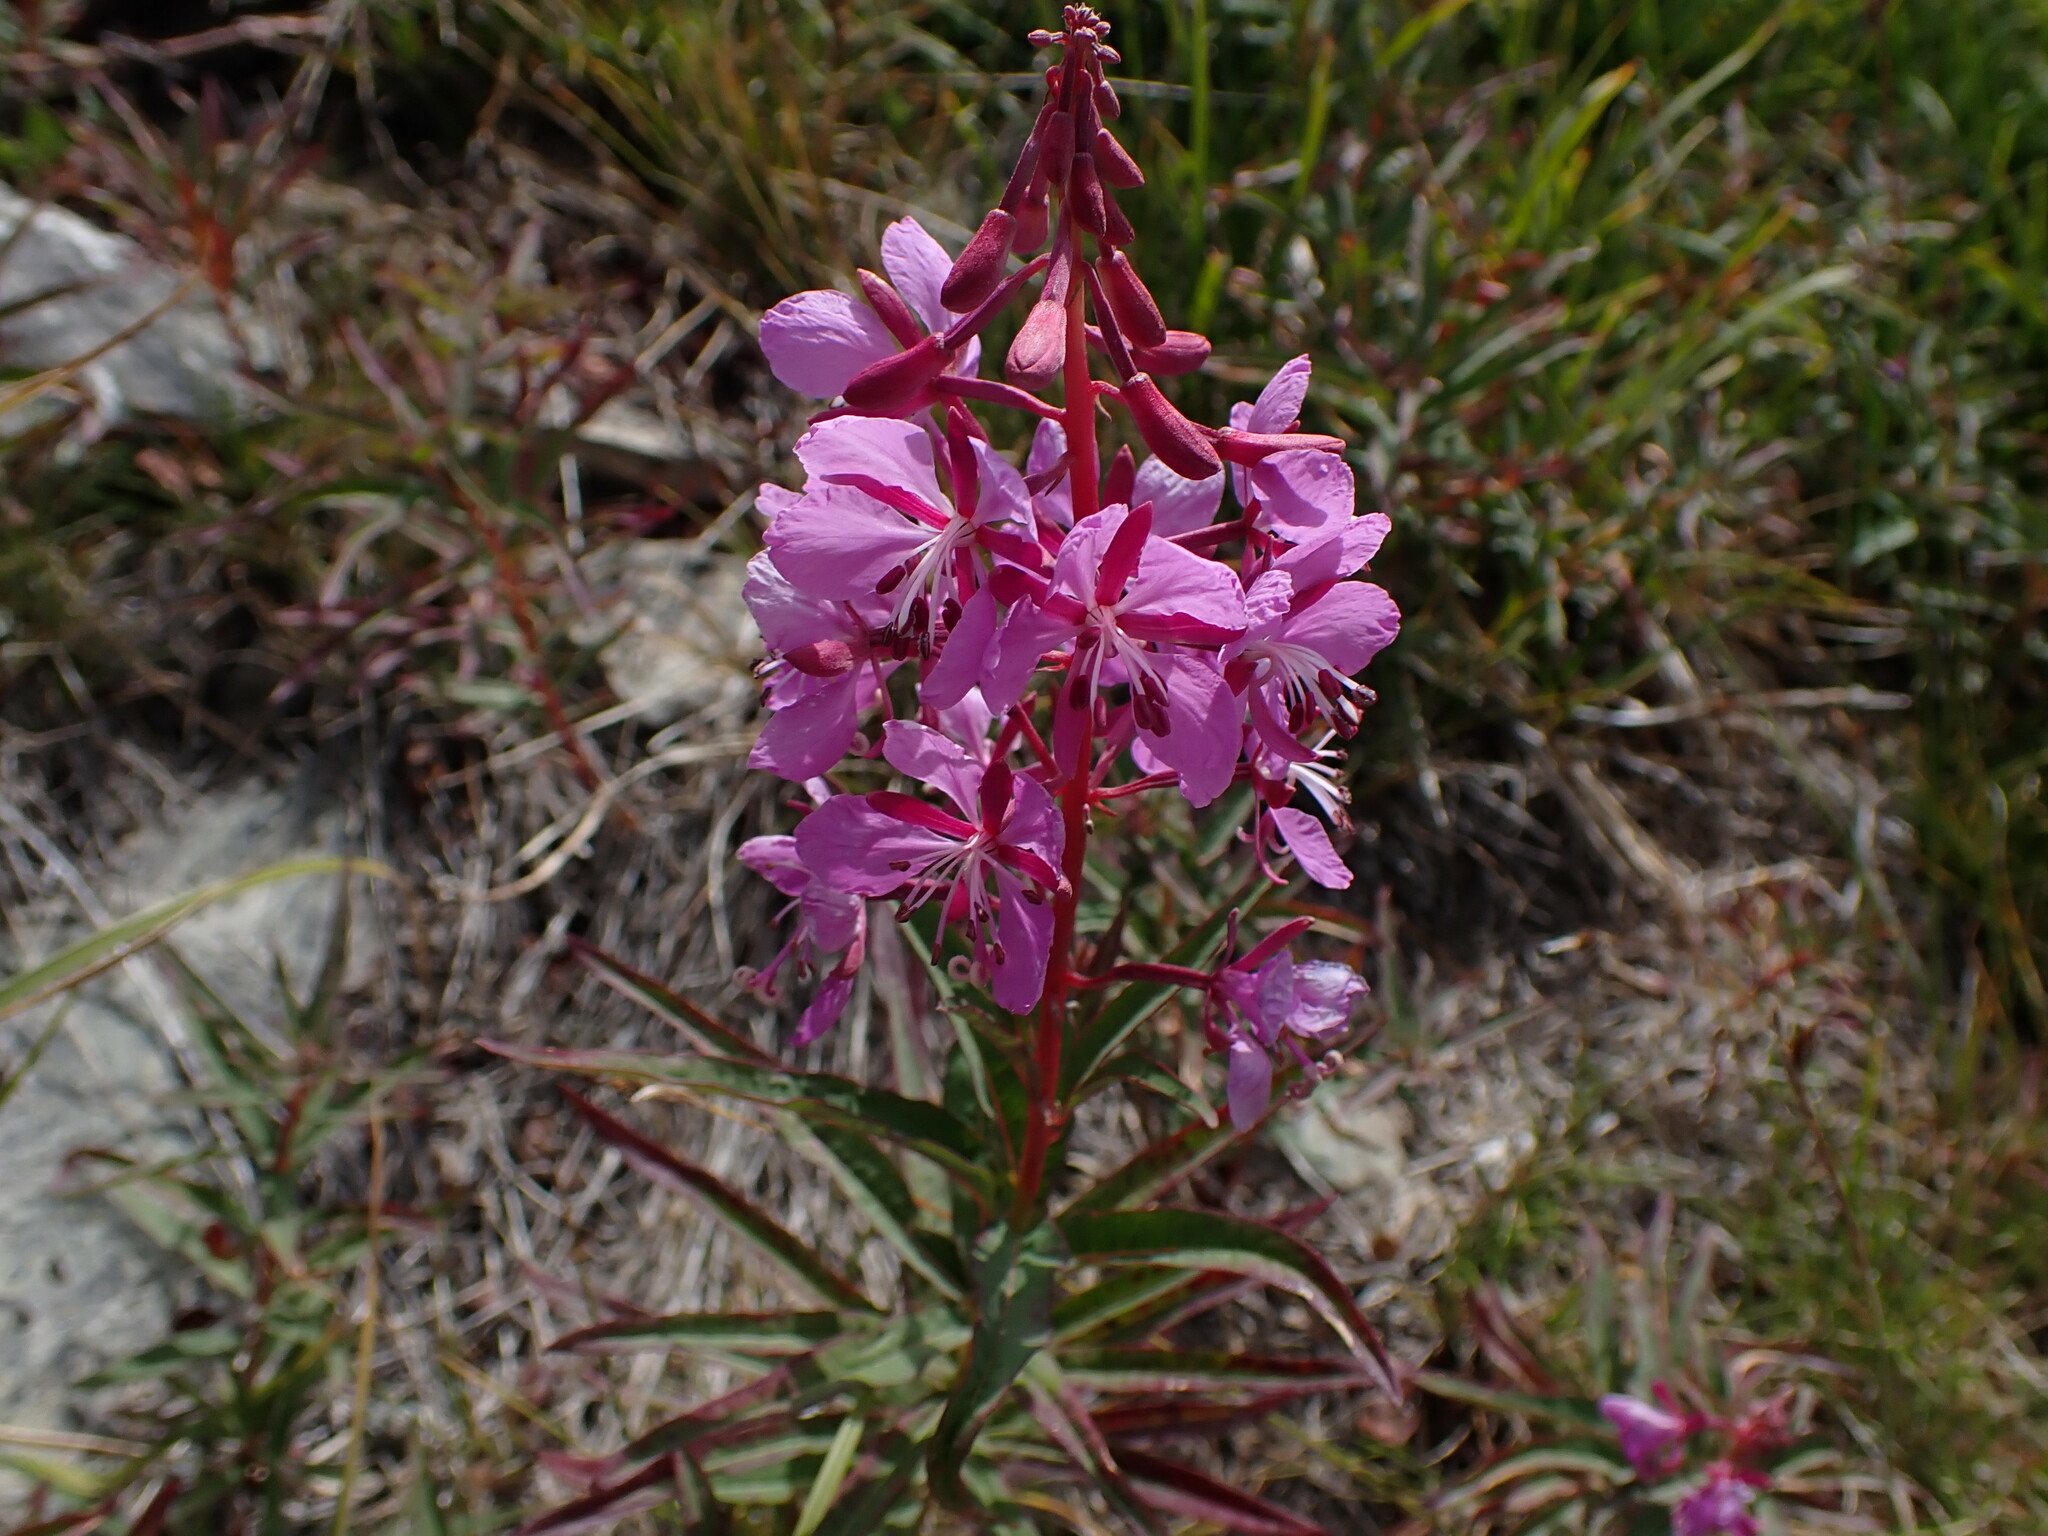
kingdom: Plantae
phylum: Tracheophyta
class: Magnoliopsida
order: Myrtales
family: Onagraceae
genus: Chamaenerion
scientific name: Chamaenerion angustifolium
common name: Fireweed
